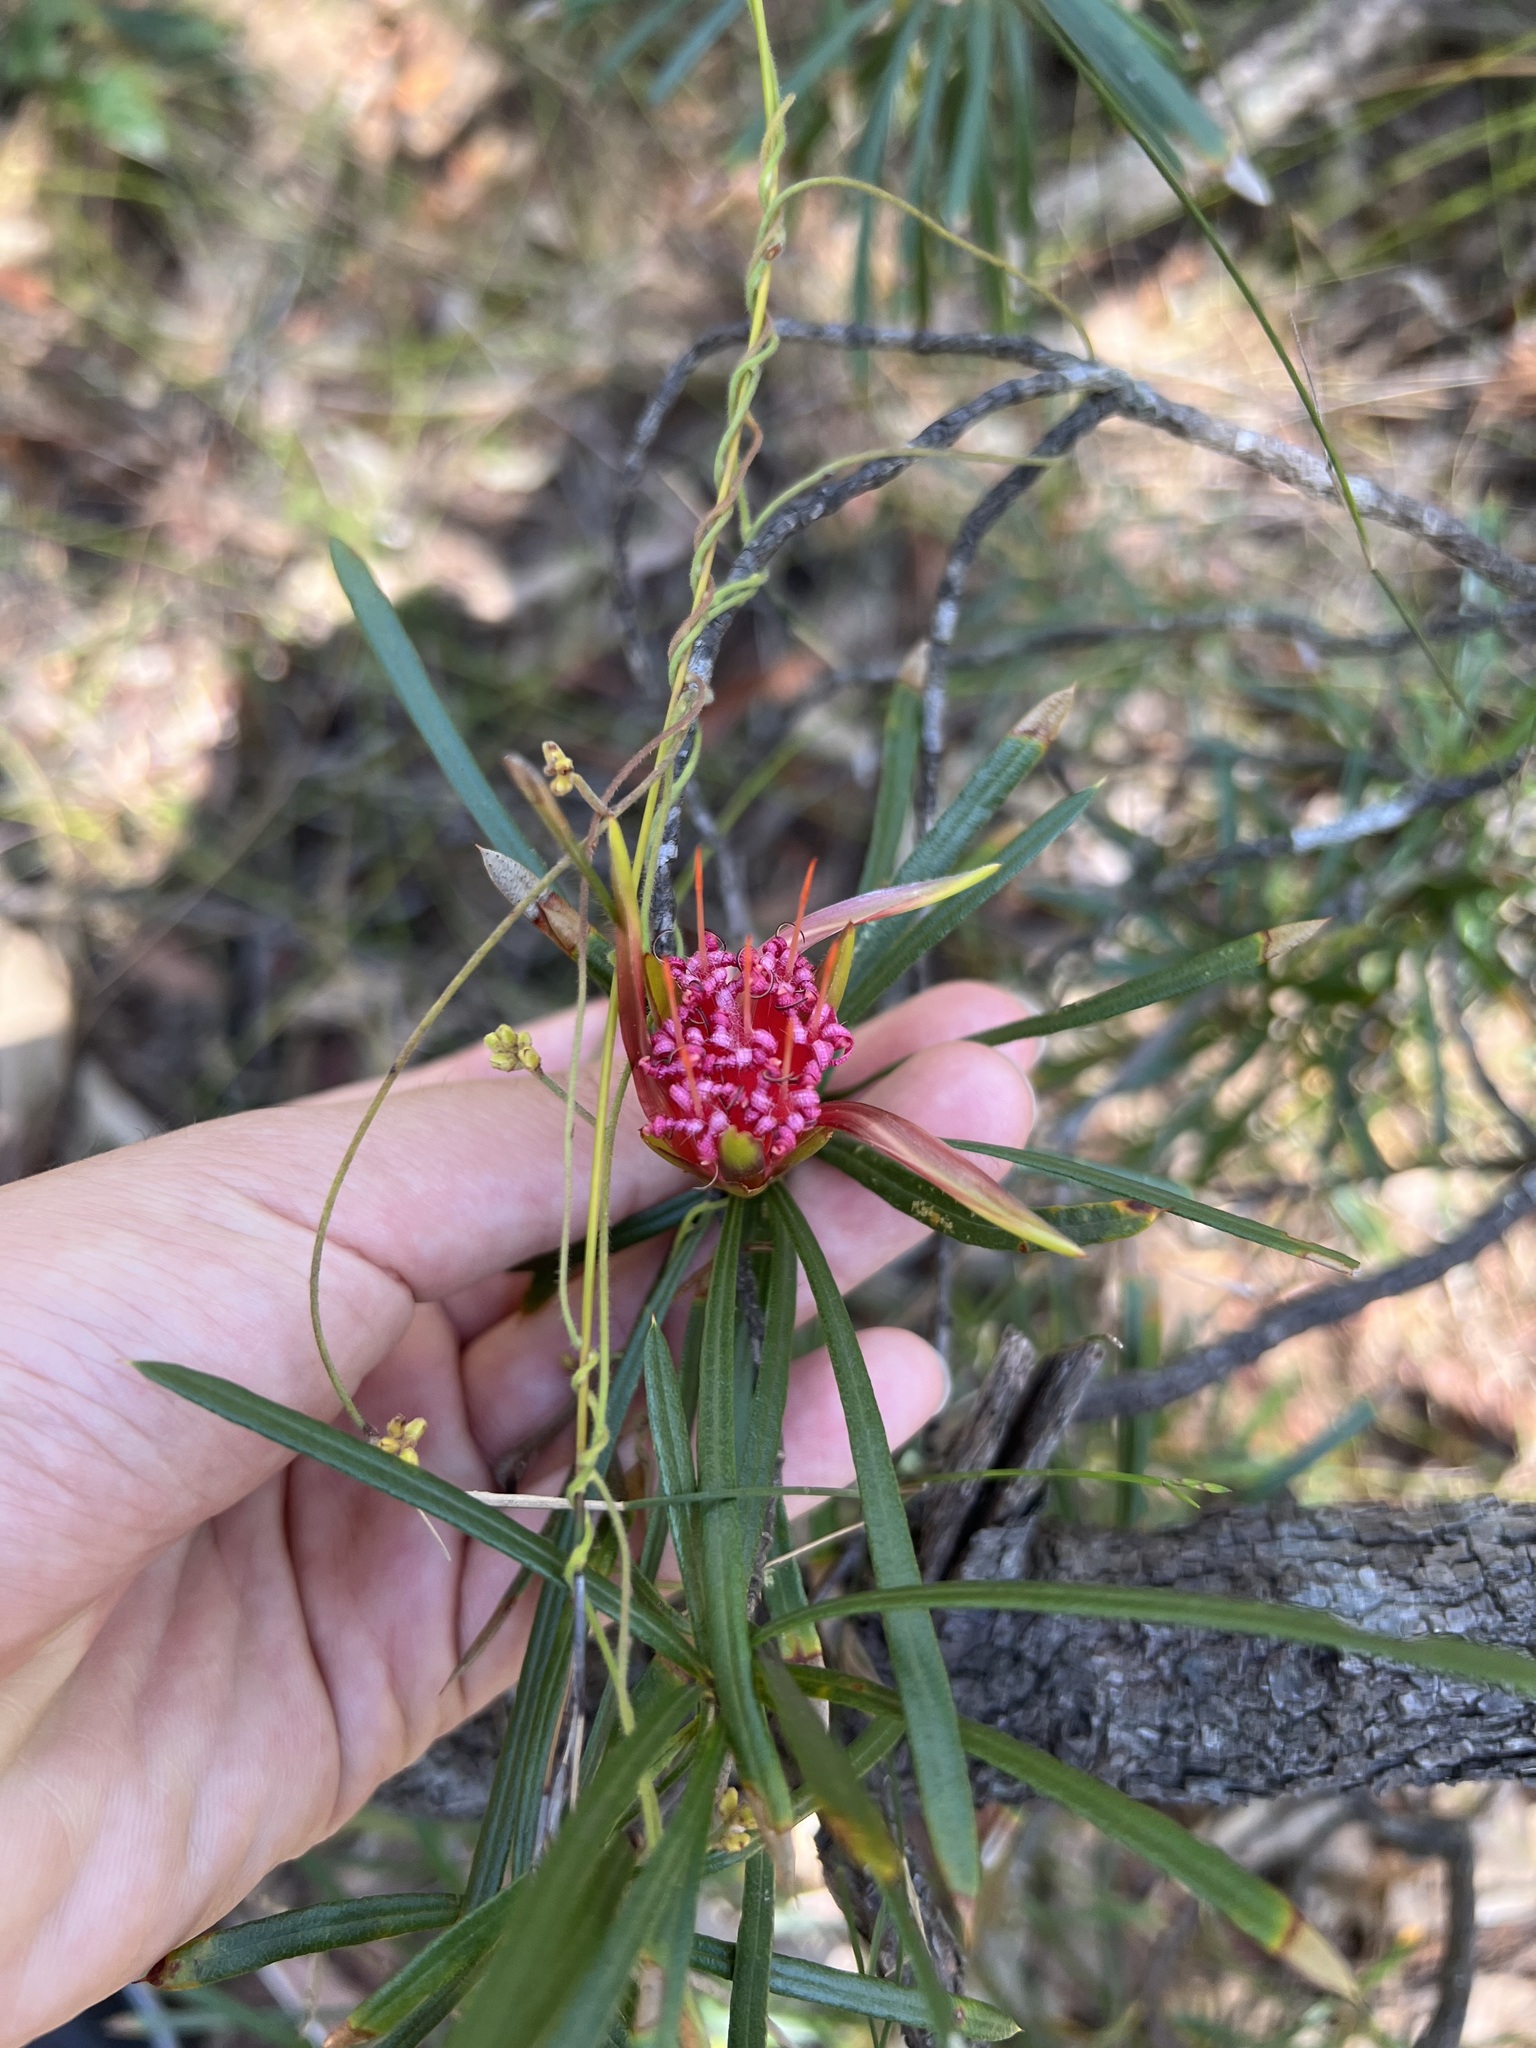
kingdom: Plantae
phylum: Tracheophyta
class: Magnoliopsida
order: Proteales
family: Proteaceae
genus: Lambertia
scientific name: Lambertia formosa
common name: Mountain-devil
